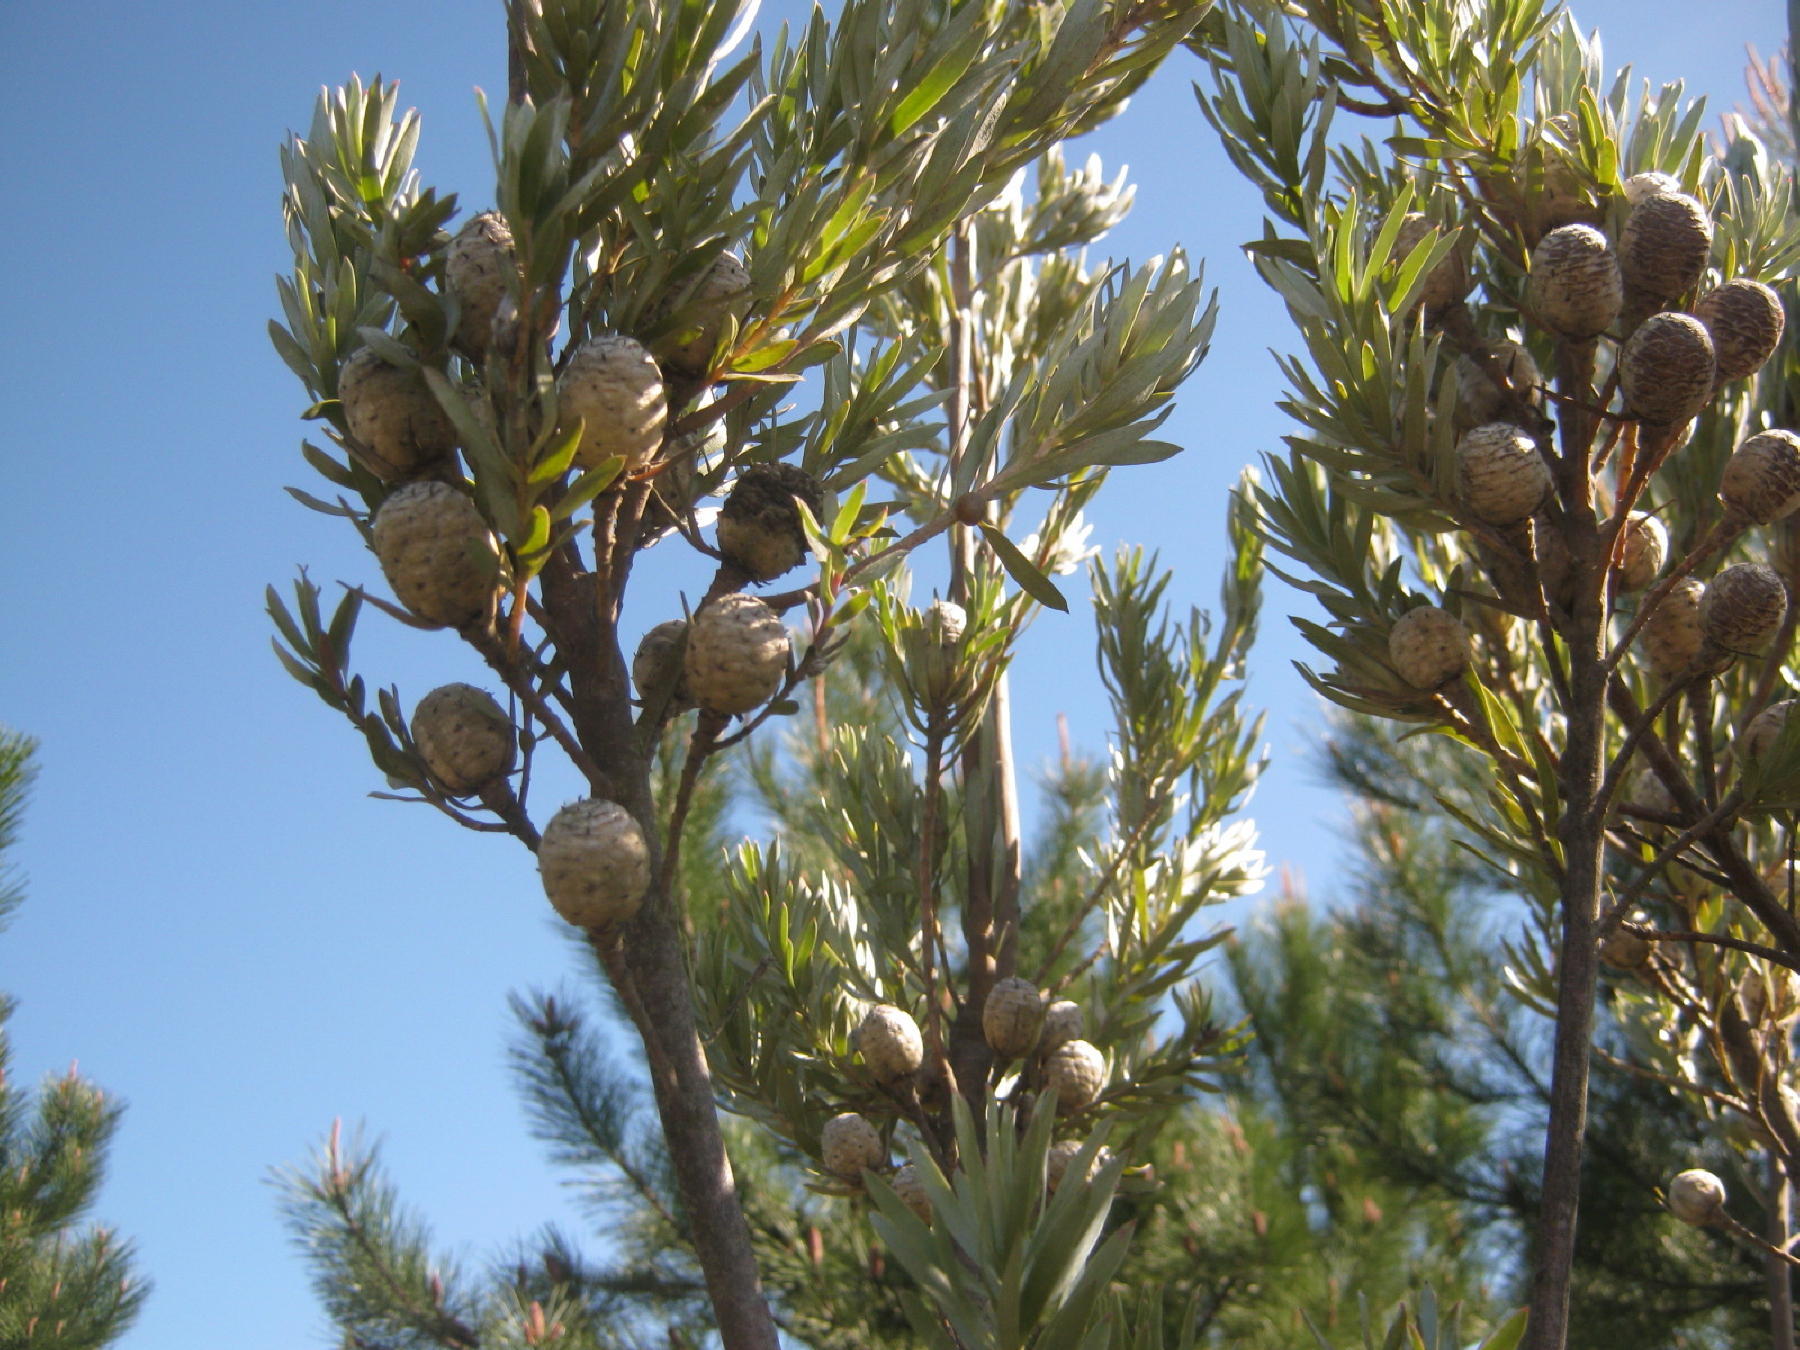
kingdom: Plantae
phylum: Tracheophyta
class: Magnoliopsida
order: Proteales
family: Proteaceae
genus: Leucadendron
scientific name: Leucadendron uliginosum
